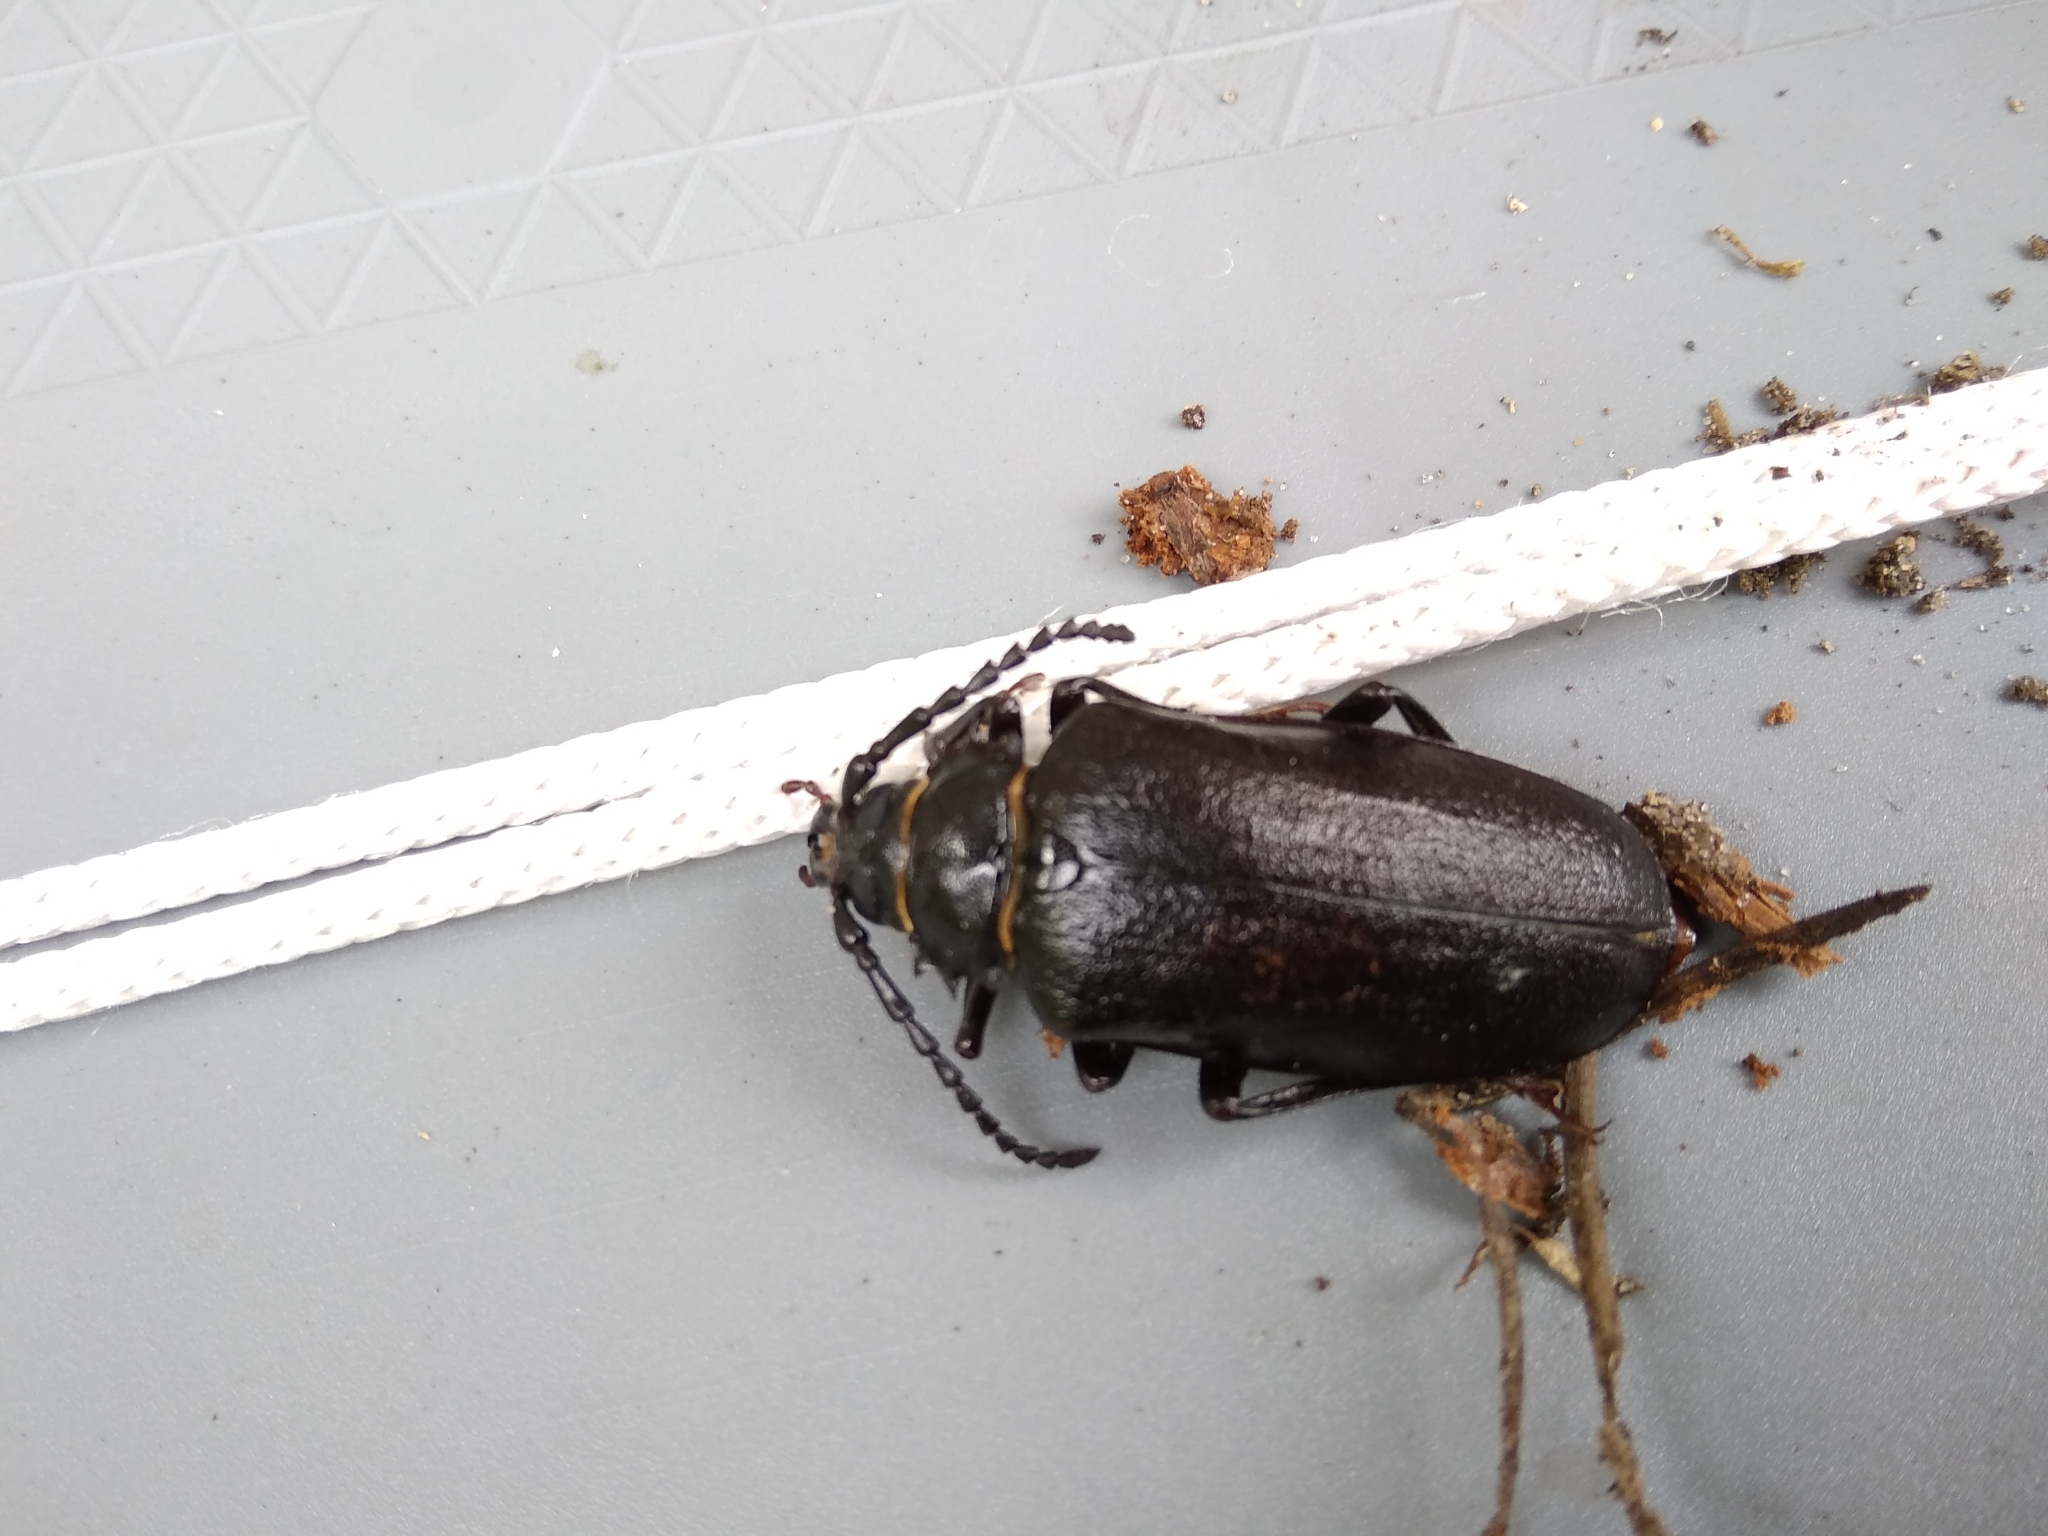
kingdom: Animalia
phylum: Arthropoda
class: Insecta
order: Coleoptera
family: Cerambycidae
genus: Prionus
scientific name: Prionus coriarius
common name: Tanner beetle
